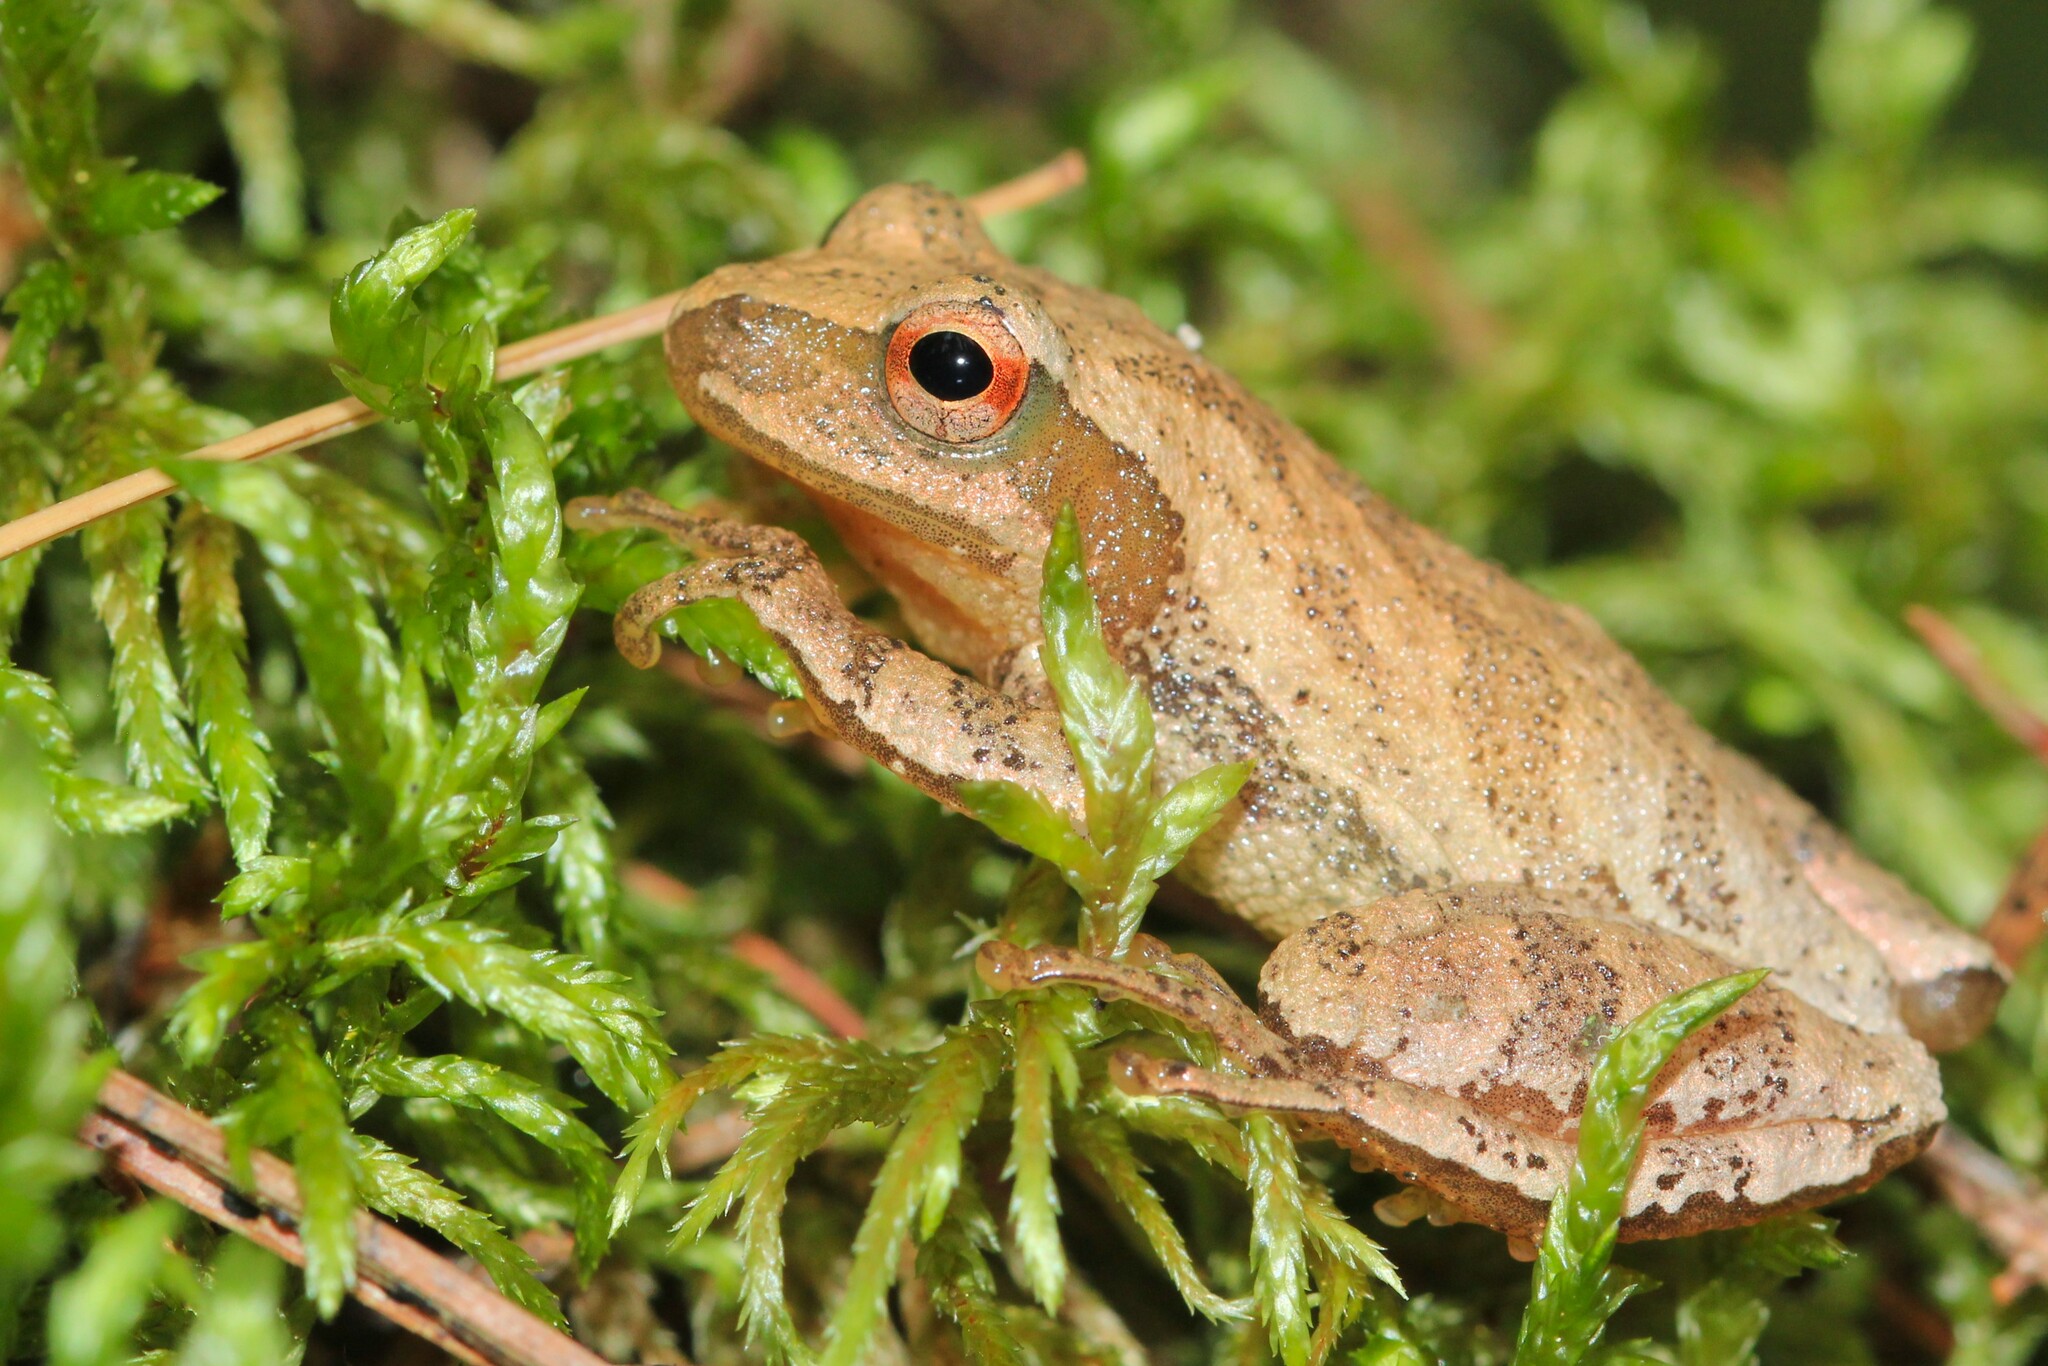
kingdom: Animalia
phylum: Chordata
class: Amphibia
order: Anura
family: Hylidae
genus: Pseudacris
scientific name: Pseudacris crucifer
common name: Spring peeper
